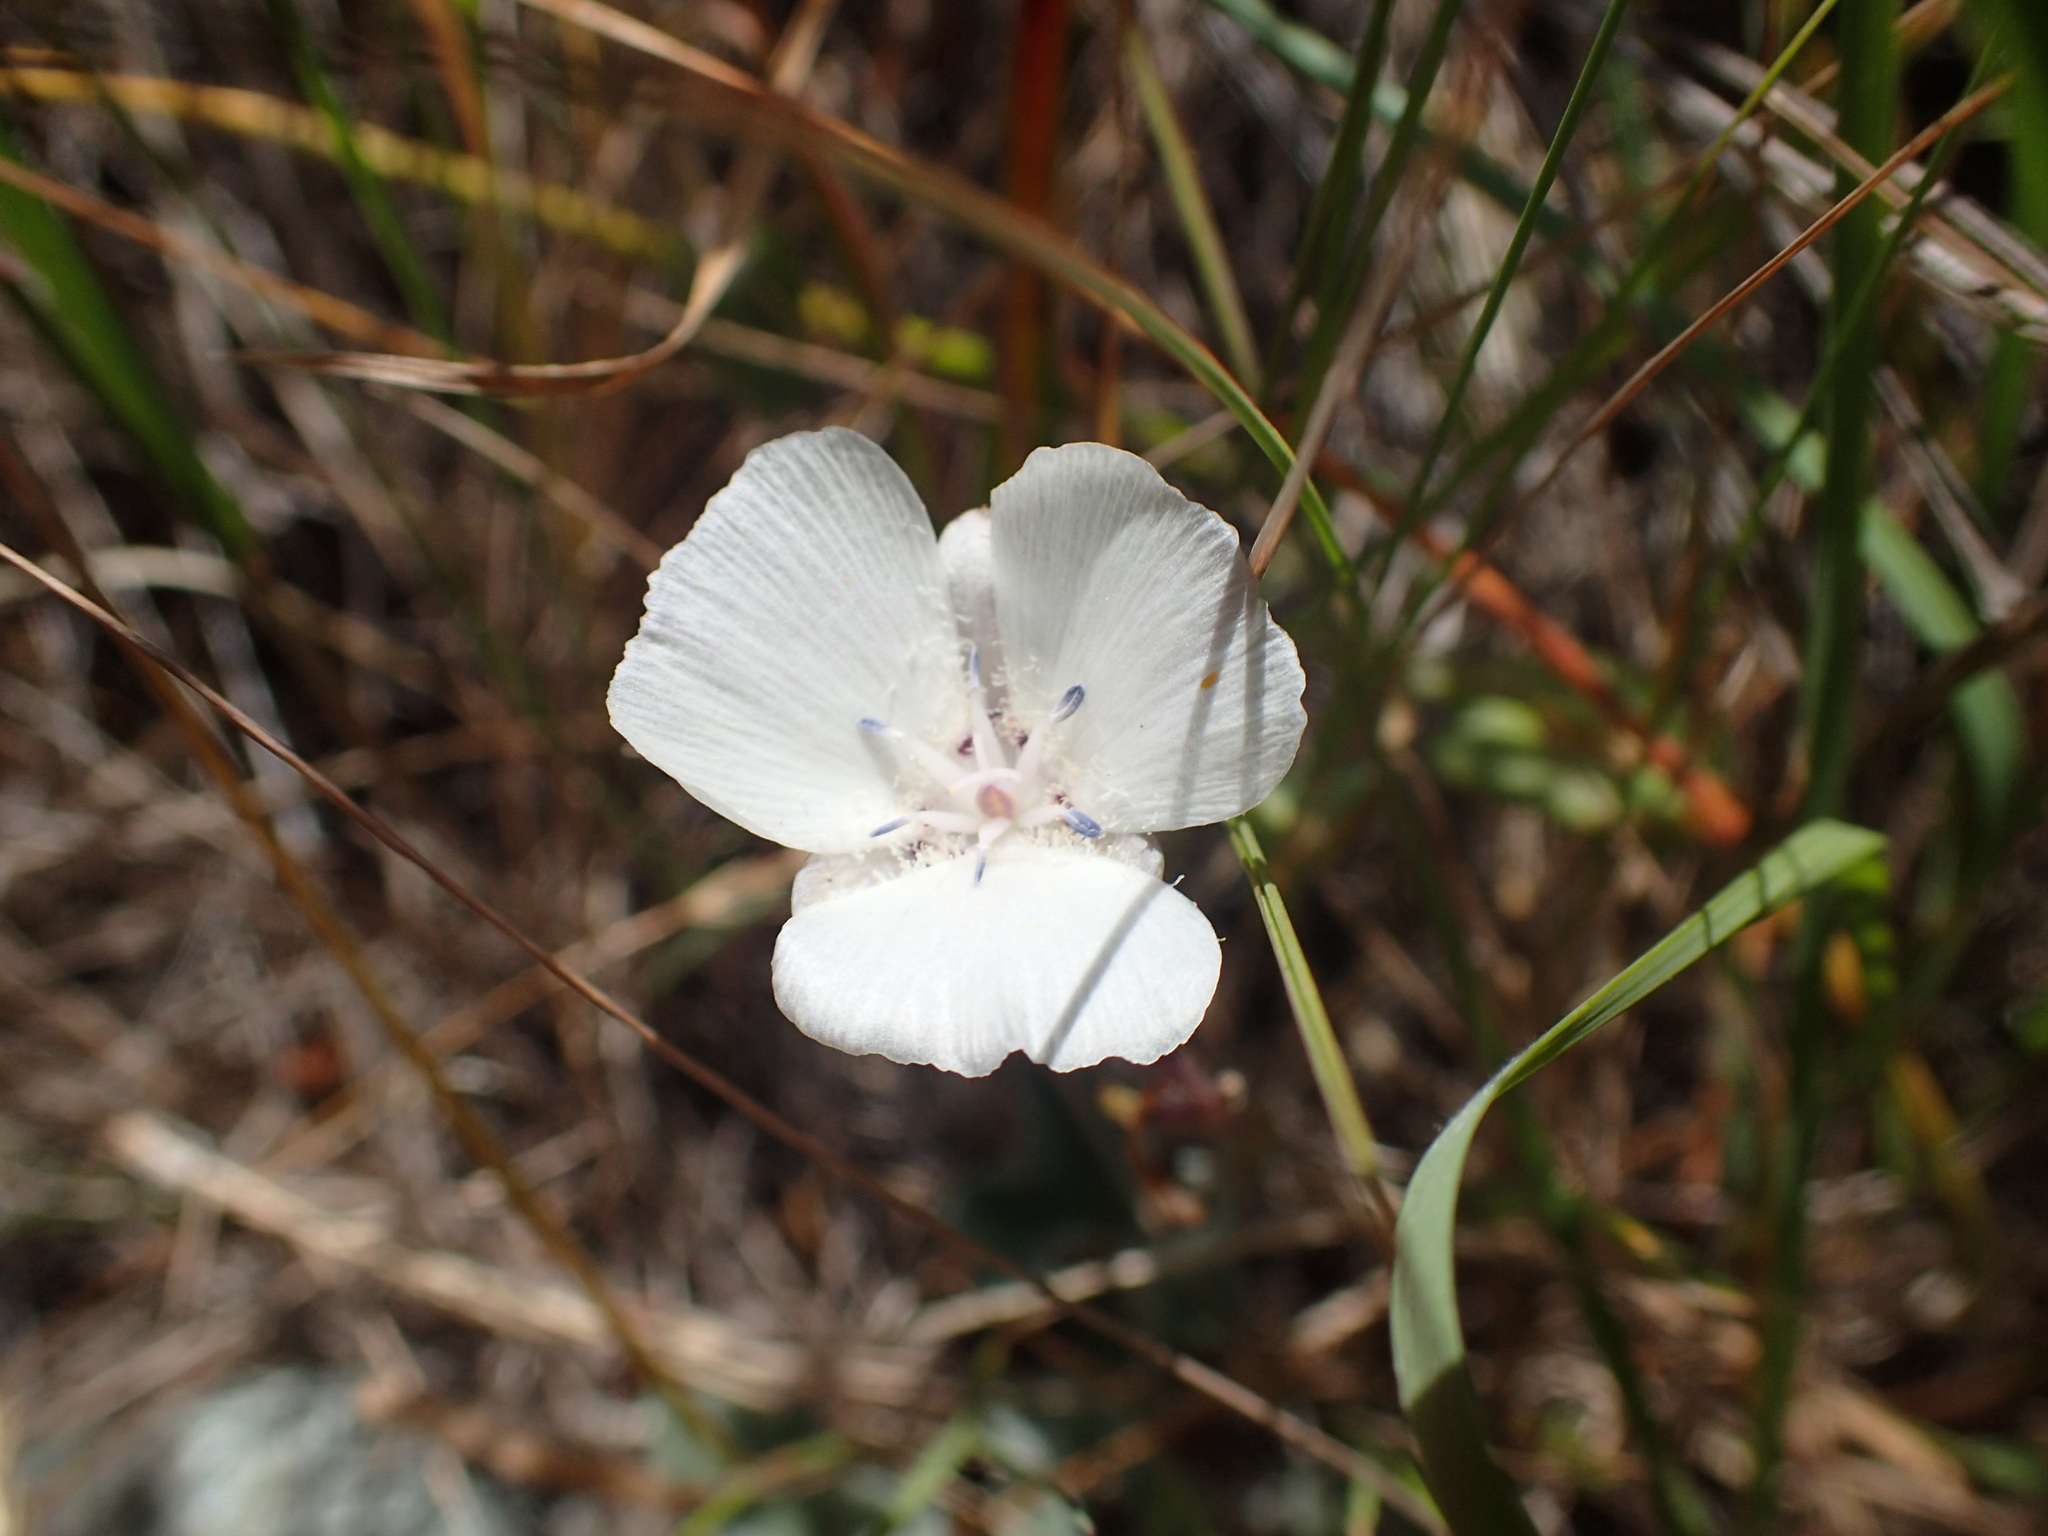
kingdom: Plantae
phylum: Tracheophyta
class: Liliopsida
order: Liliales
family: Liliaceae
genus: Calochortus
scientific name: Calochortus umbellatus
